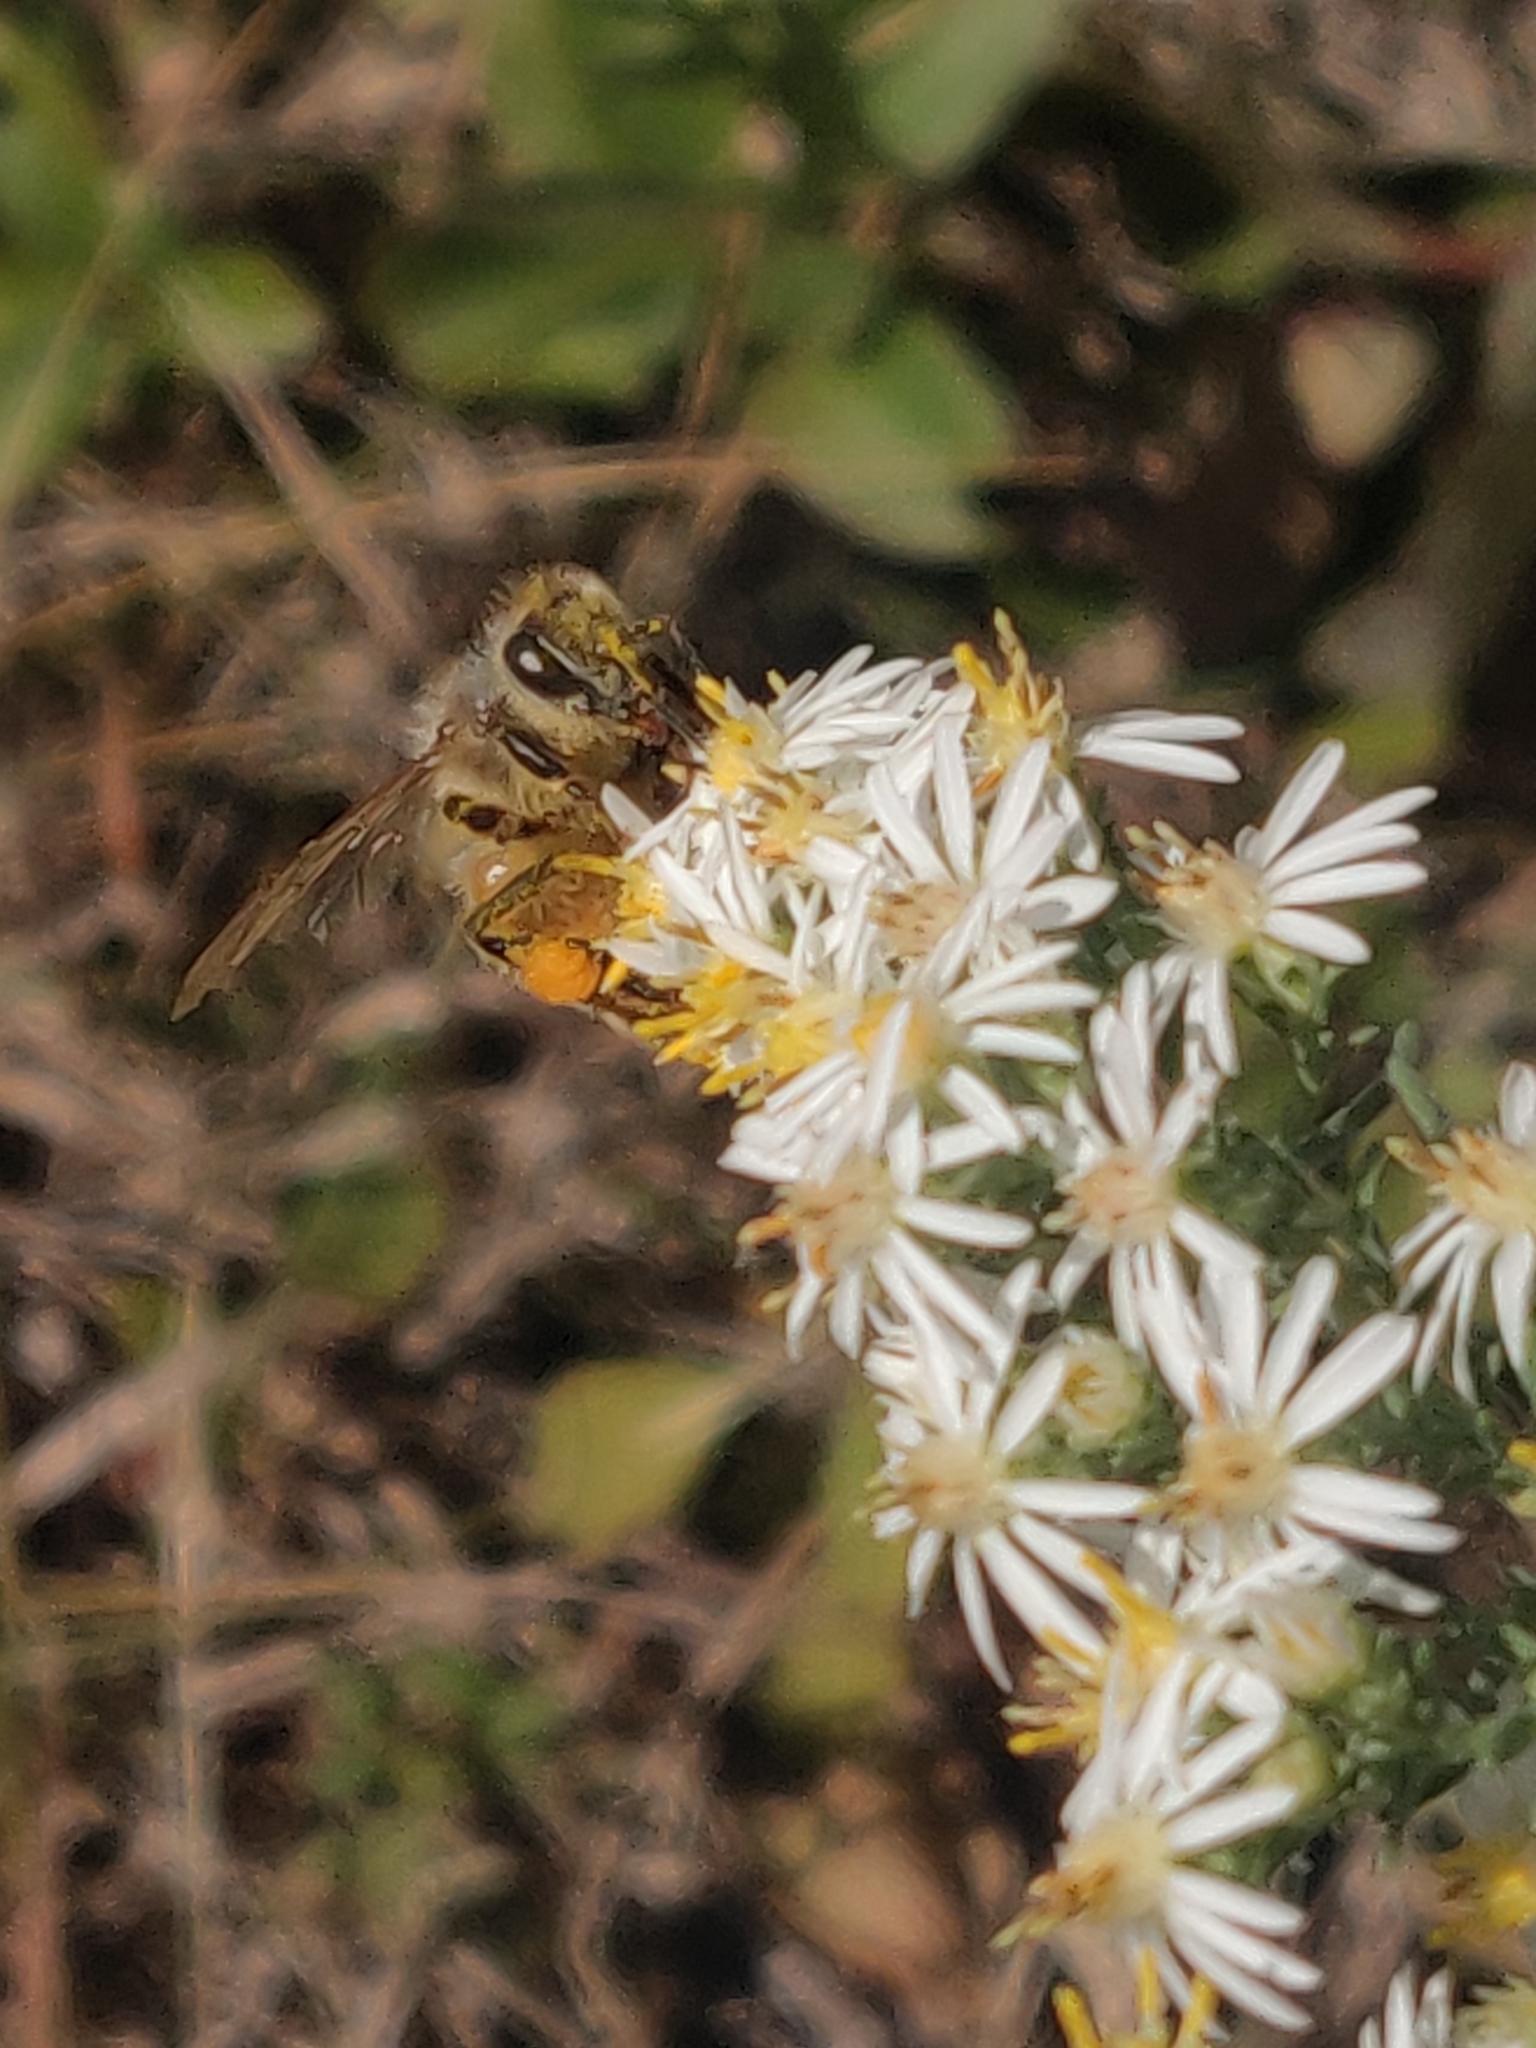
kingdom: Animalia
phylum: Arthropoda
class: Insecta
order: Hymenoptera
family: Apidae
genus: Apis
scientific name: Apis mellifera
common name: Honey bee
